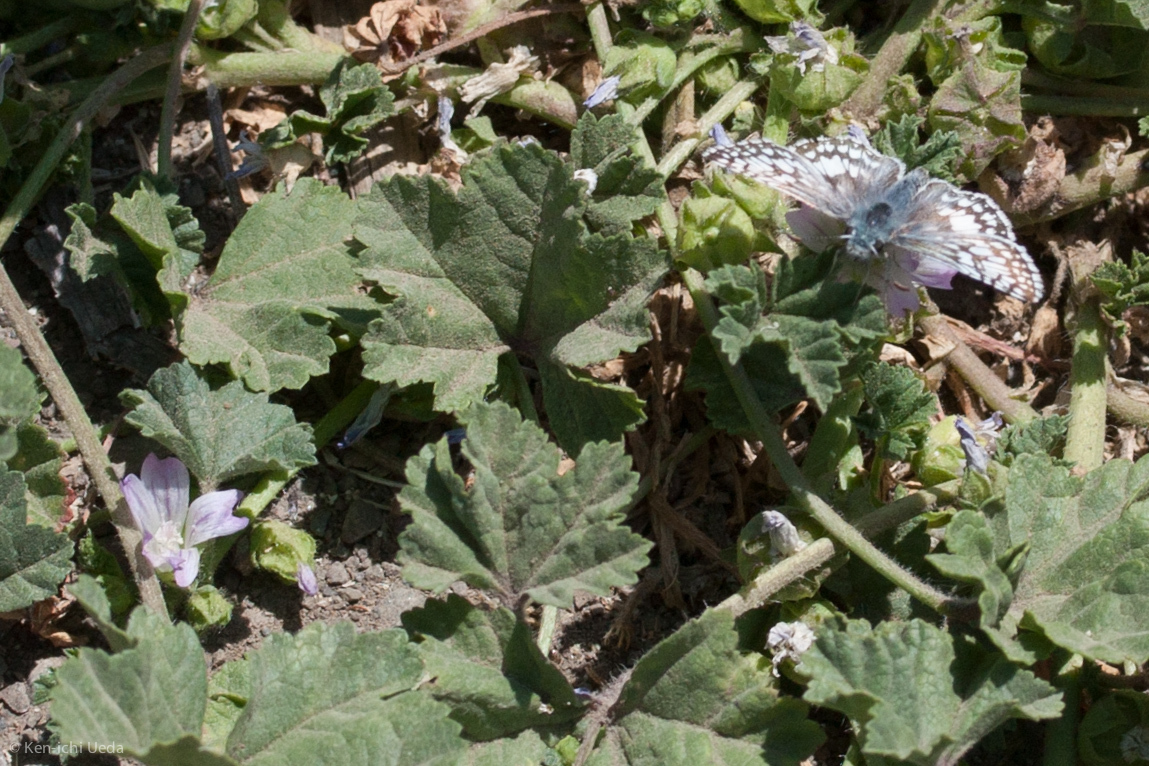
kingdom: Animalia
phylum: Arthropoda
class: Insecta
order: Lepidoptera
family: Hesperiidae
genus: Burnsius
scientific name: Burnsius communis
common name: Common checkered-skipper
